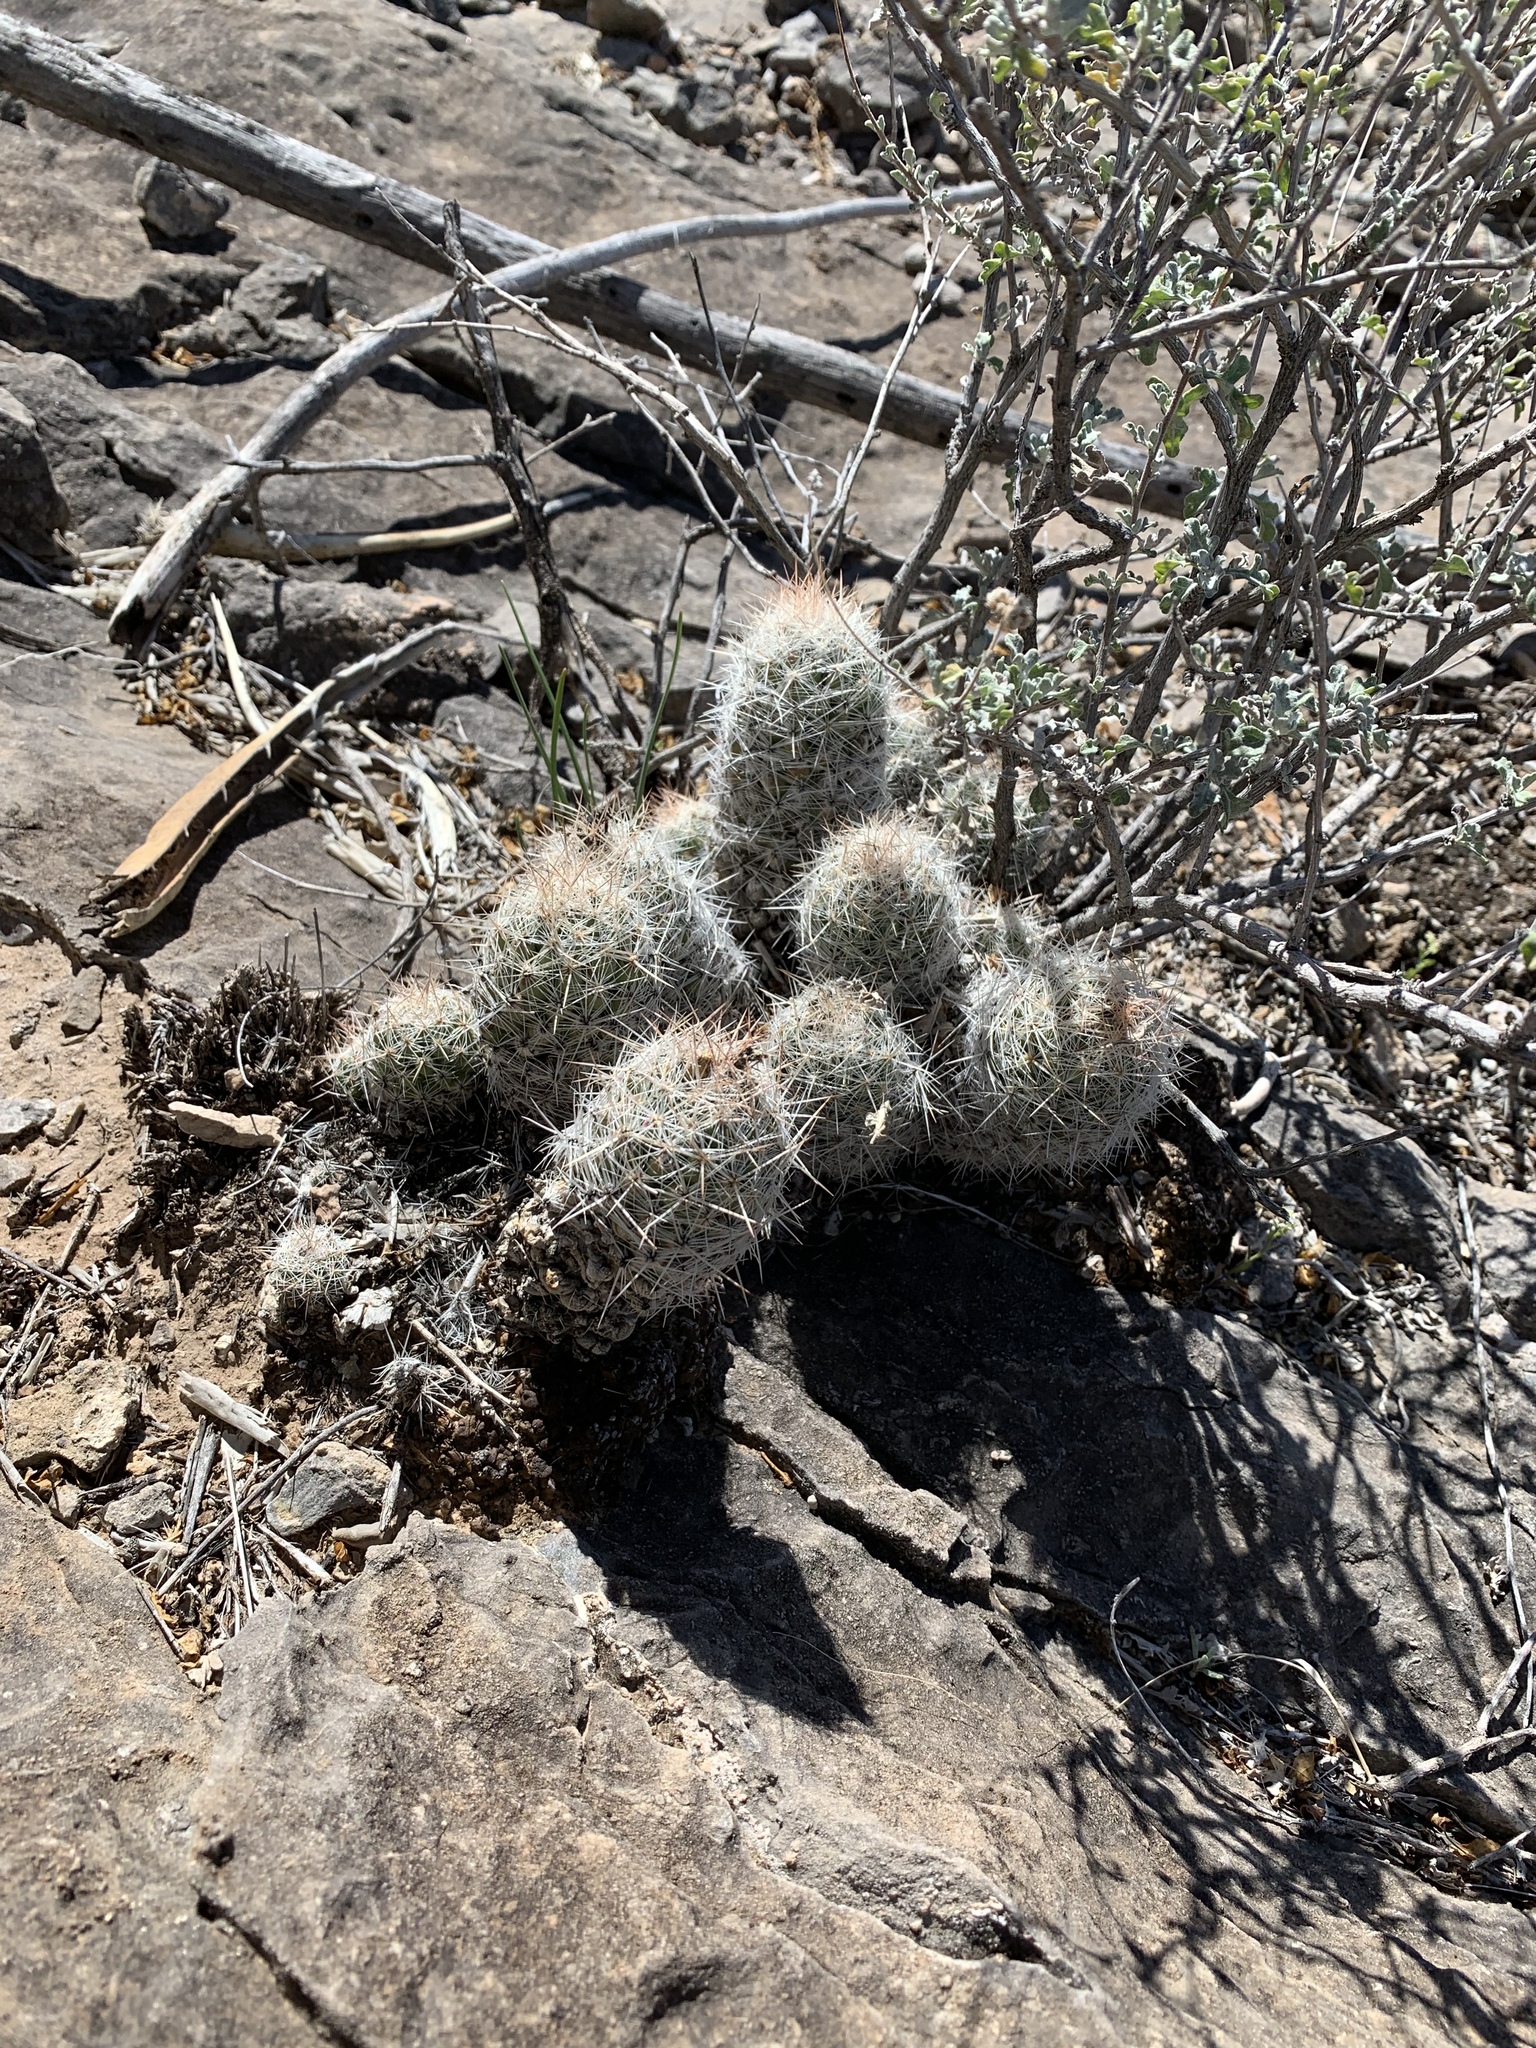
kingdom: Plantae
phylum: Tracheophyta
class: Magnoliopsida
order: Caryophyllales
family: Cactaceae
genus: Pelecyphora
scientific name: Pelecyphora tuberculosa
